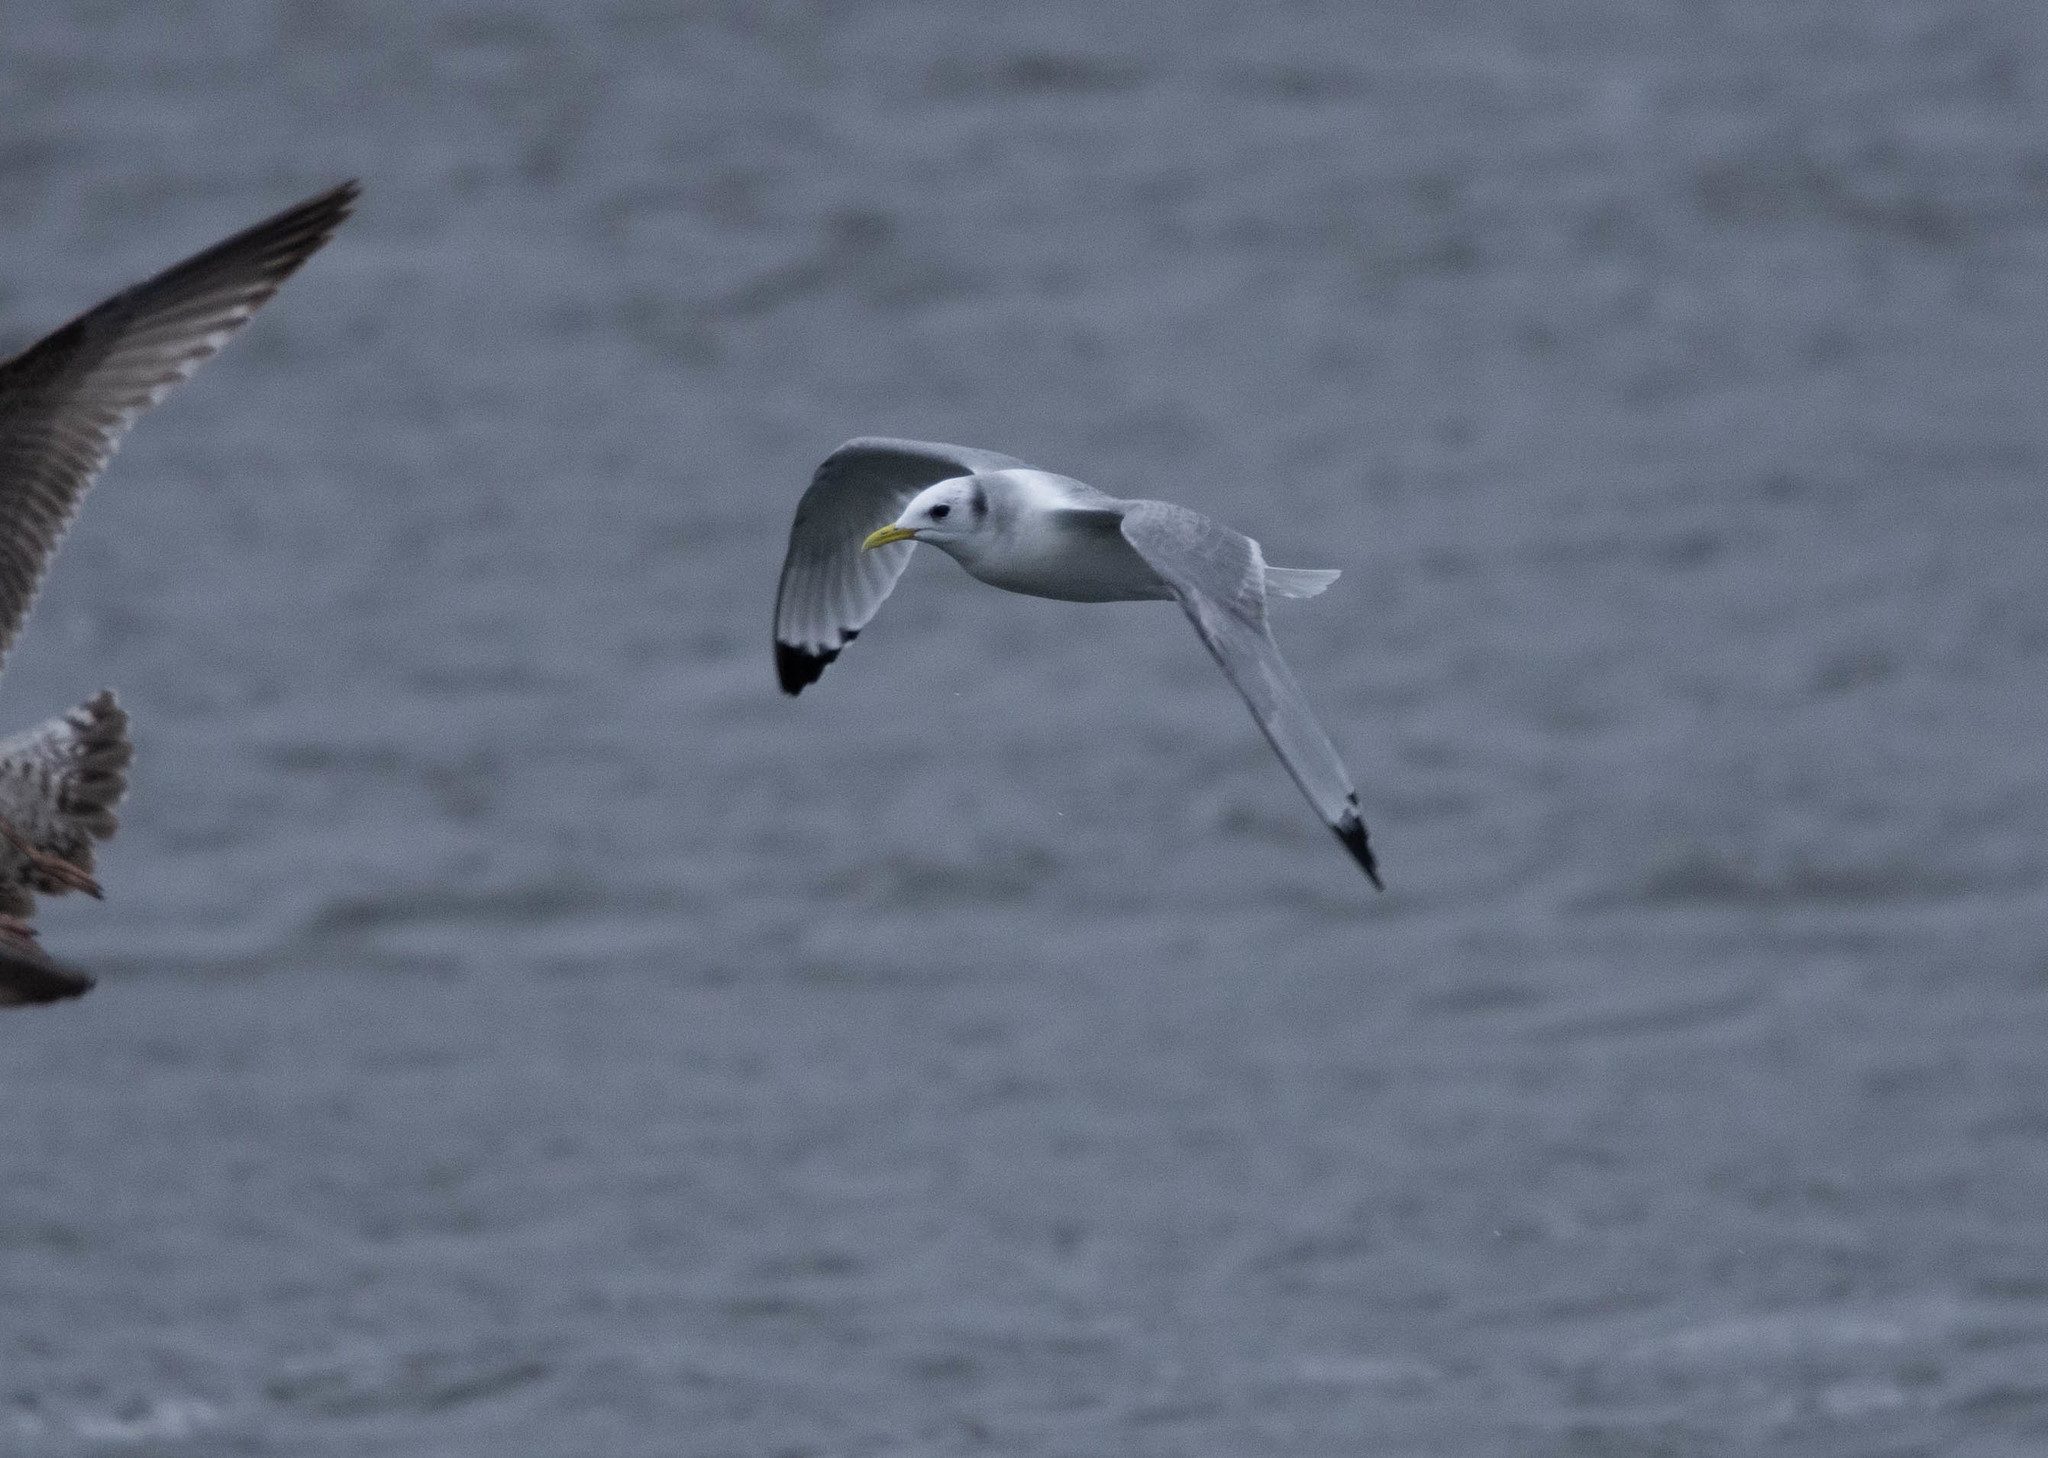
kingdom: Animalia
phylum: Chordata
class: Aves
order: Charadriiformes
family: Laridae
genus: Rissa
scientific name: Rissa tridactyla
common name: Black-legged kittiwake
